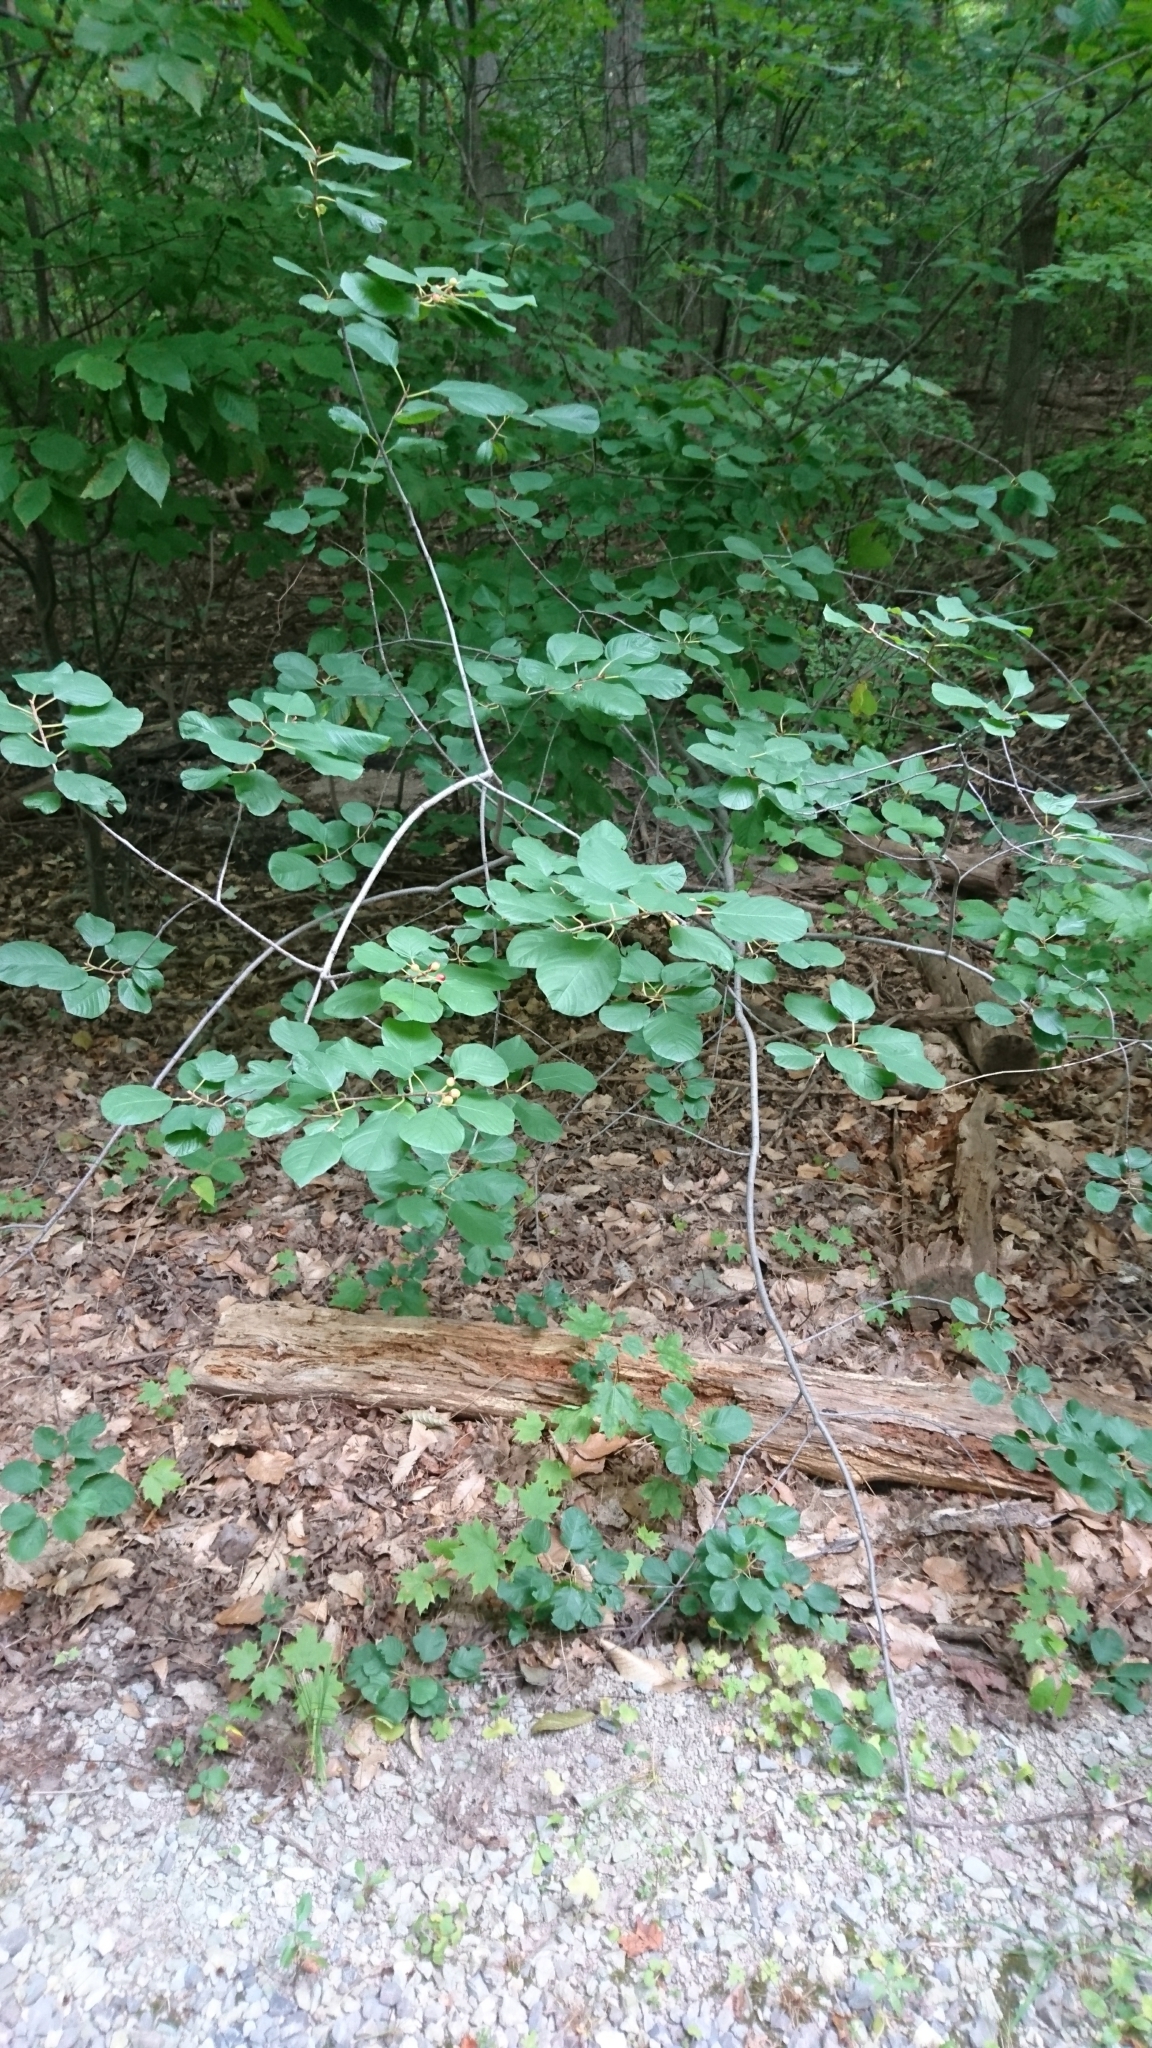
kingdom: Plantae
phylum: Tracheophyta
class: Magnoliopsida
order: Rosales
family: Rhamnaceae
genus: Frangula
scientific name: Frangula alnus
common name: Alder buckthorn
